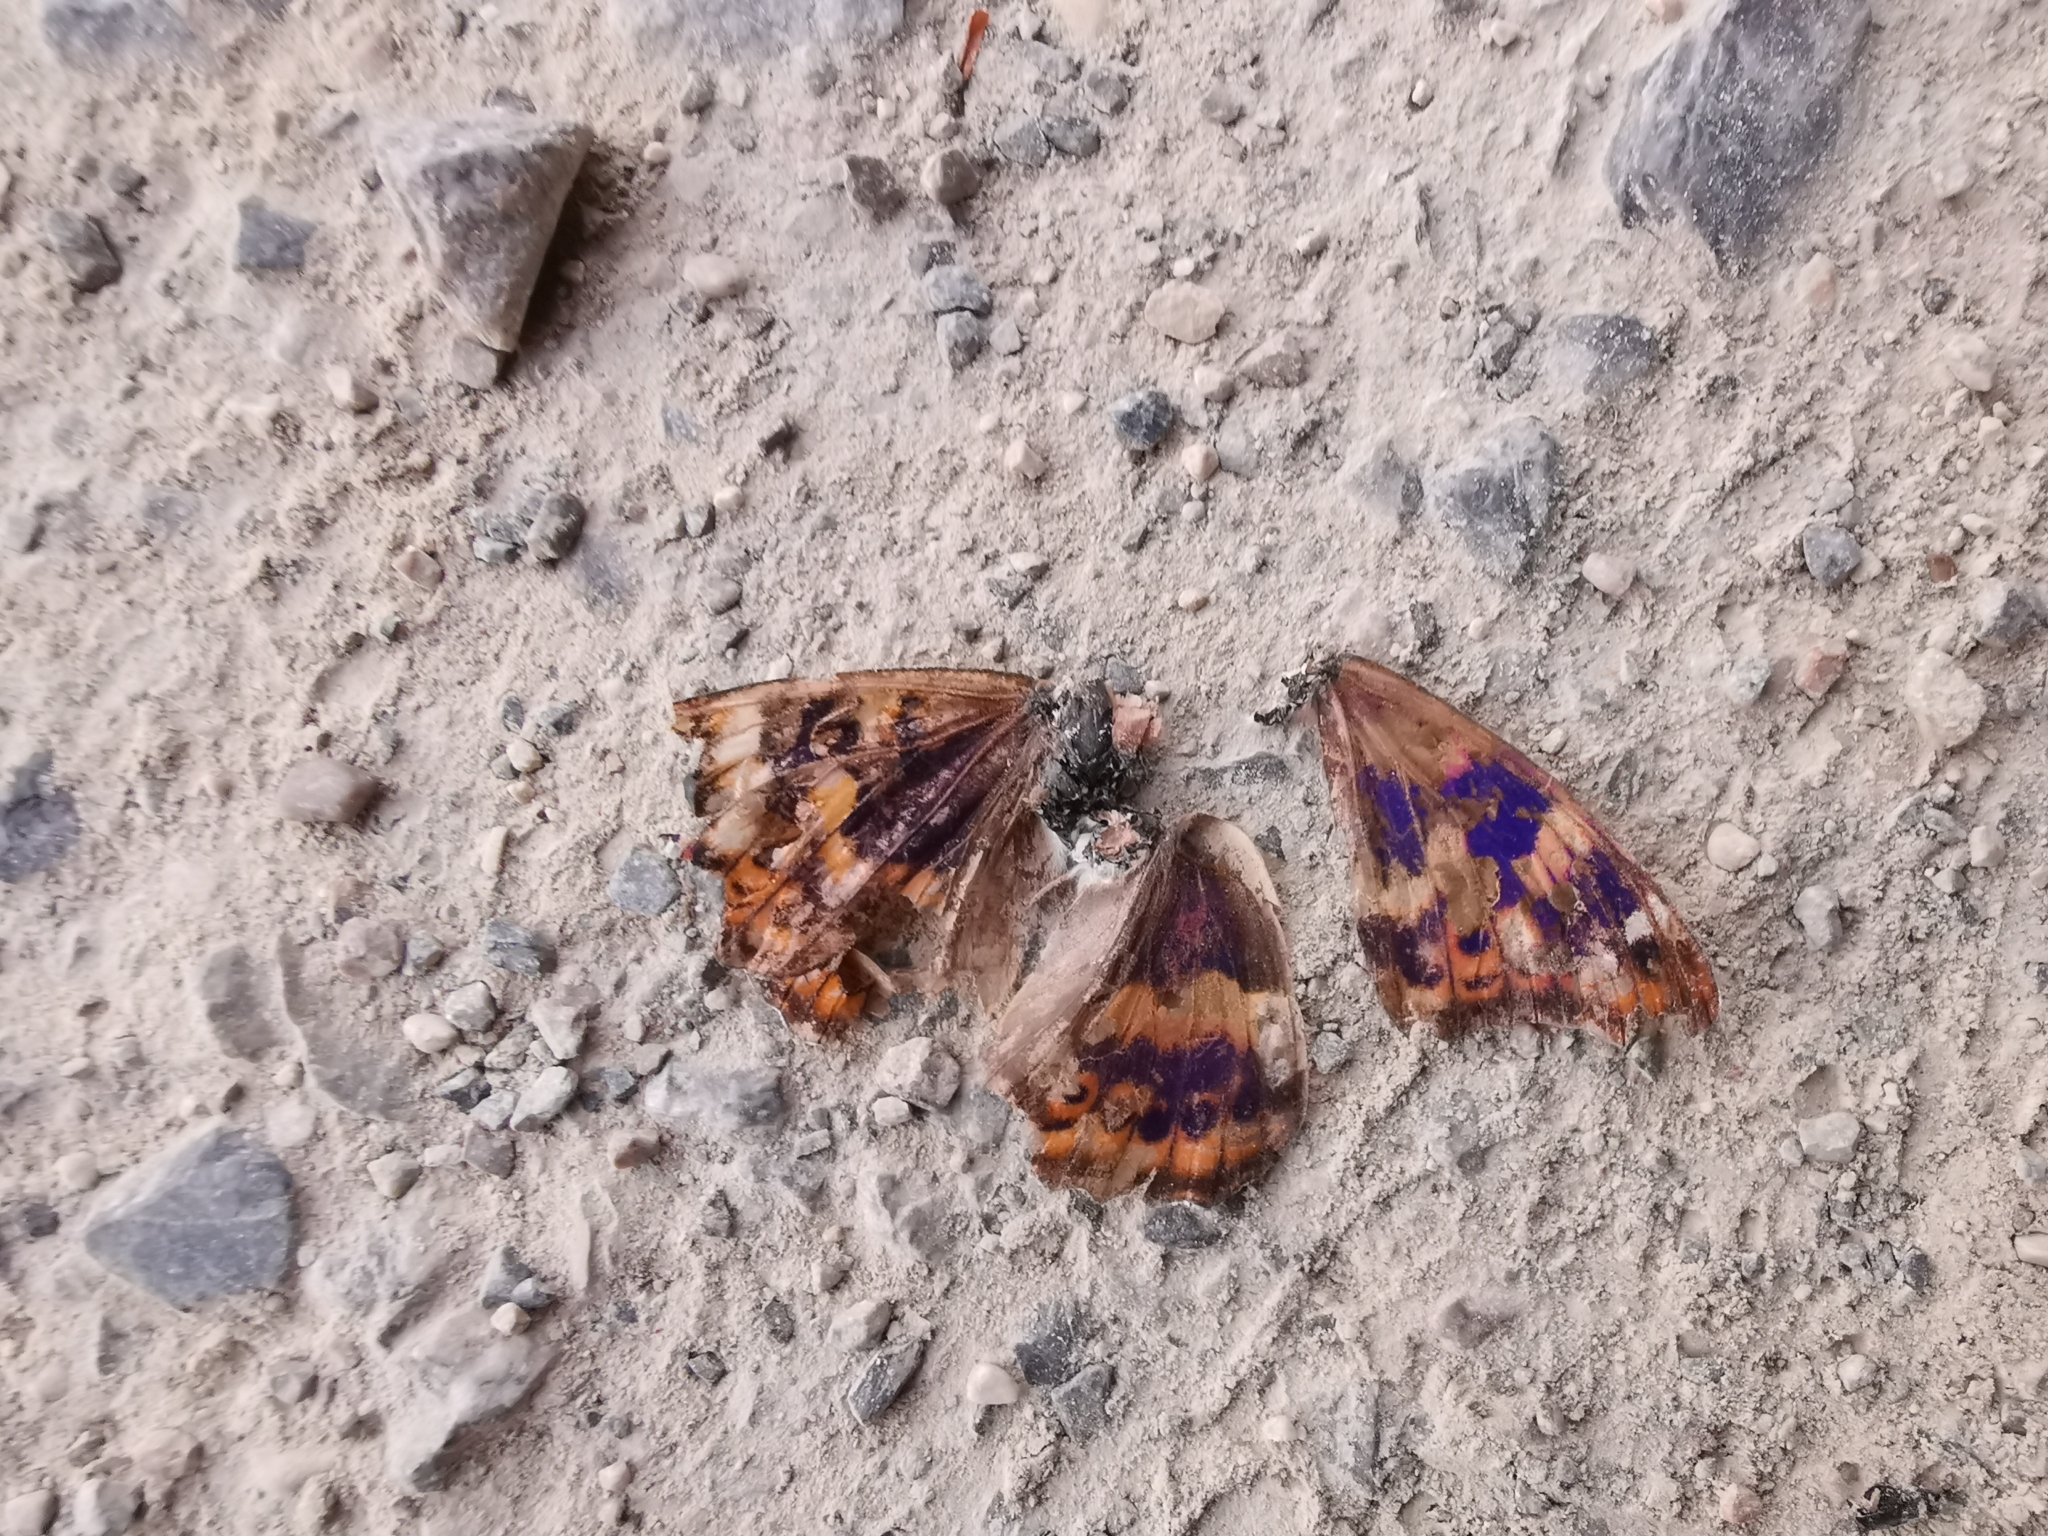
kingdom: Animalia
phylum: Arthropoda
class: Insecta
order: Lepidoptera
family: Nymphalidae
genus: Apatura
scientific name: Apatura ilia
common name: Lesser purple emperor
